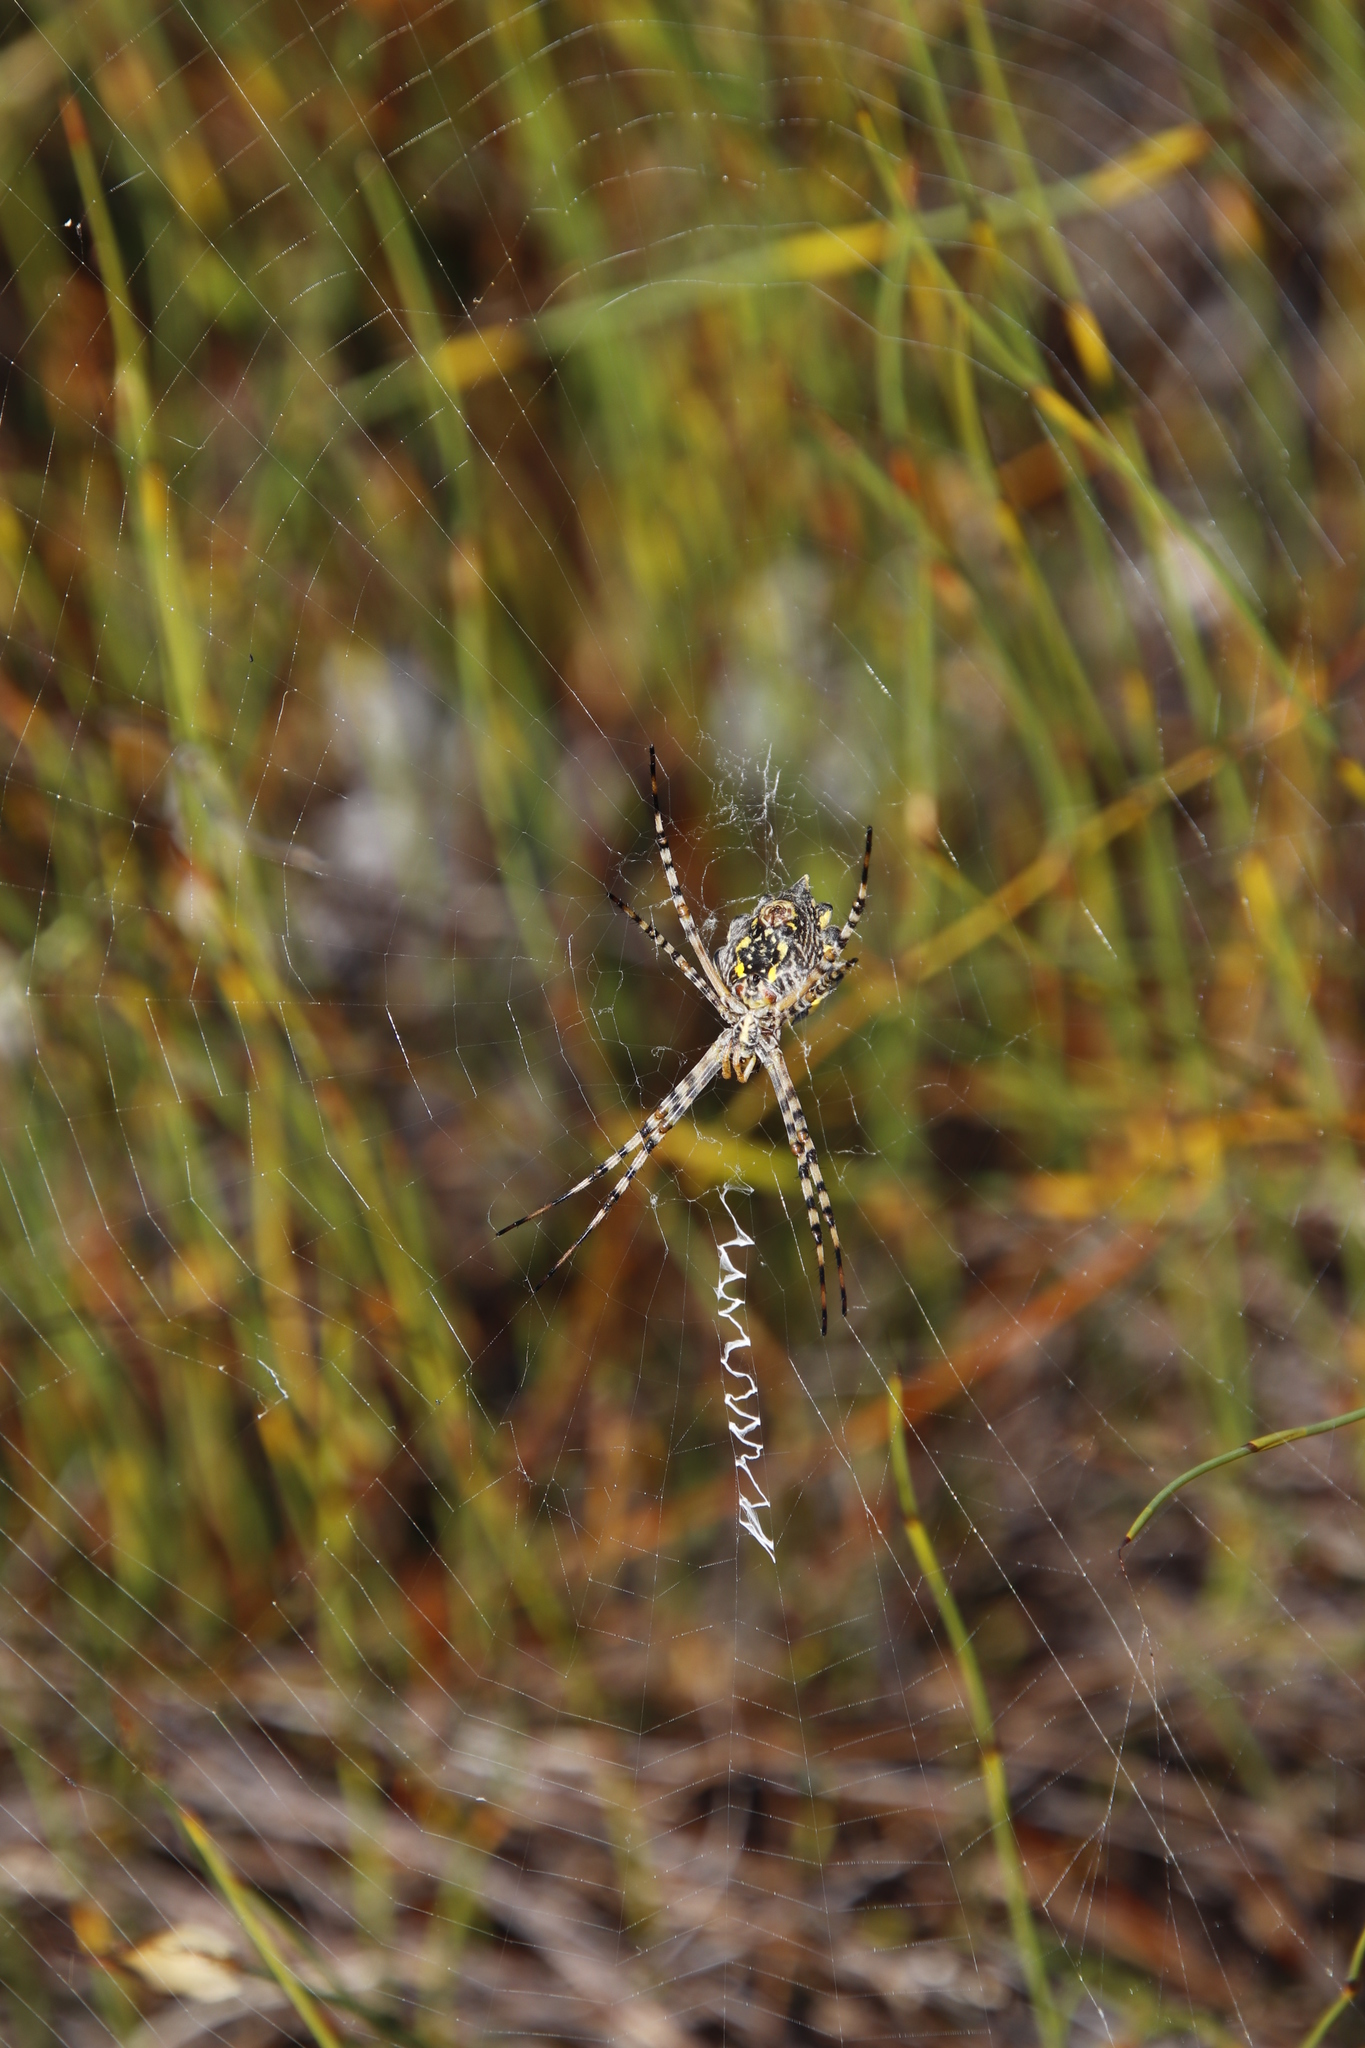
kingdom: Animalia
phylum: Arthropoda
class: Arachnida
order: Araneae
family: Araneidae
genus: Argiope
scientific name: Argiope australis
